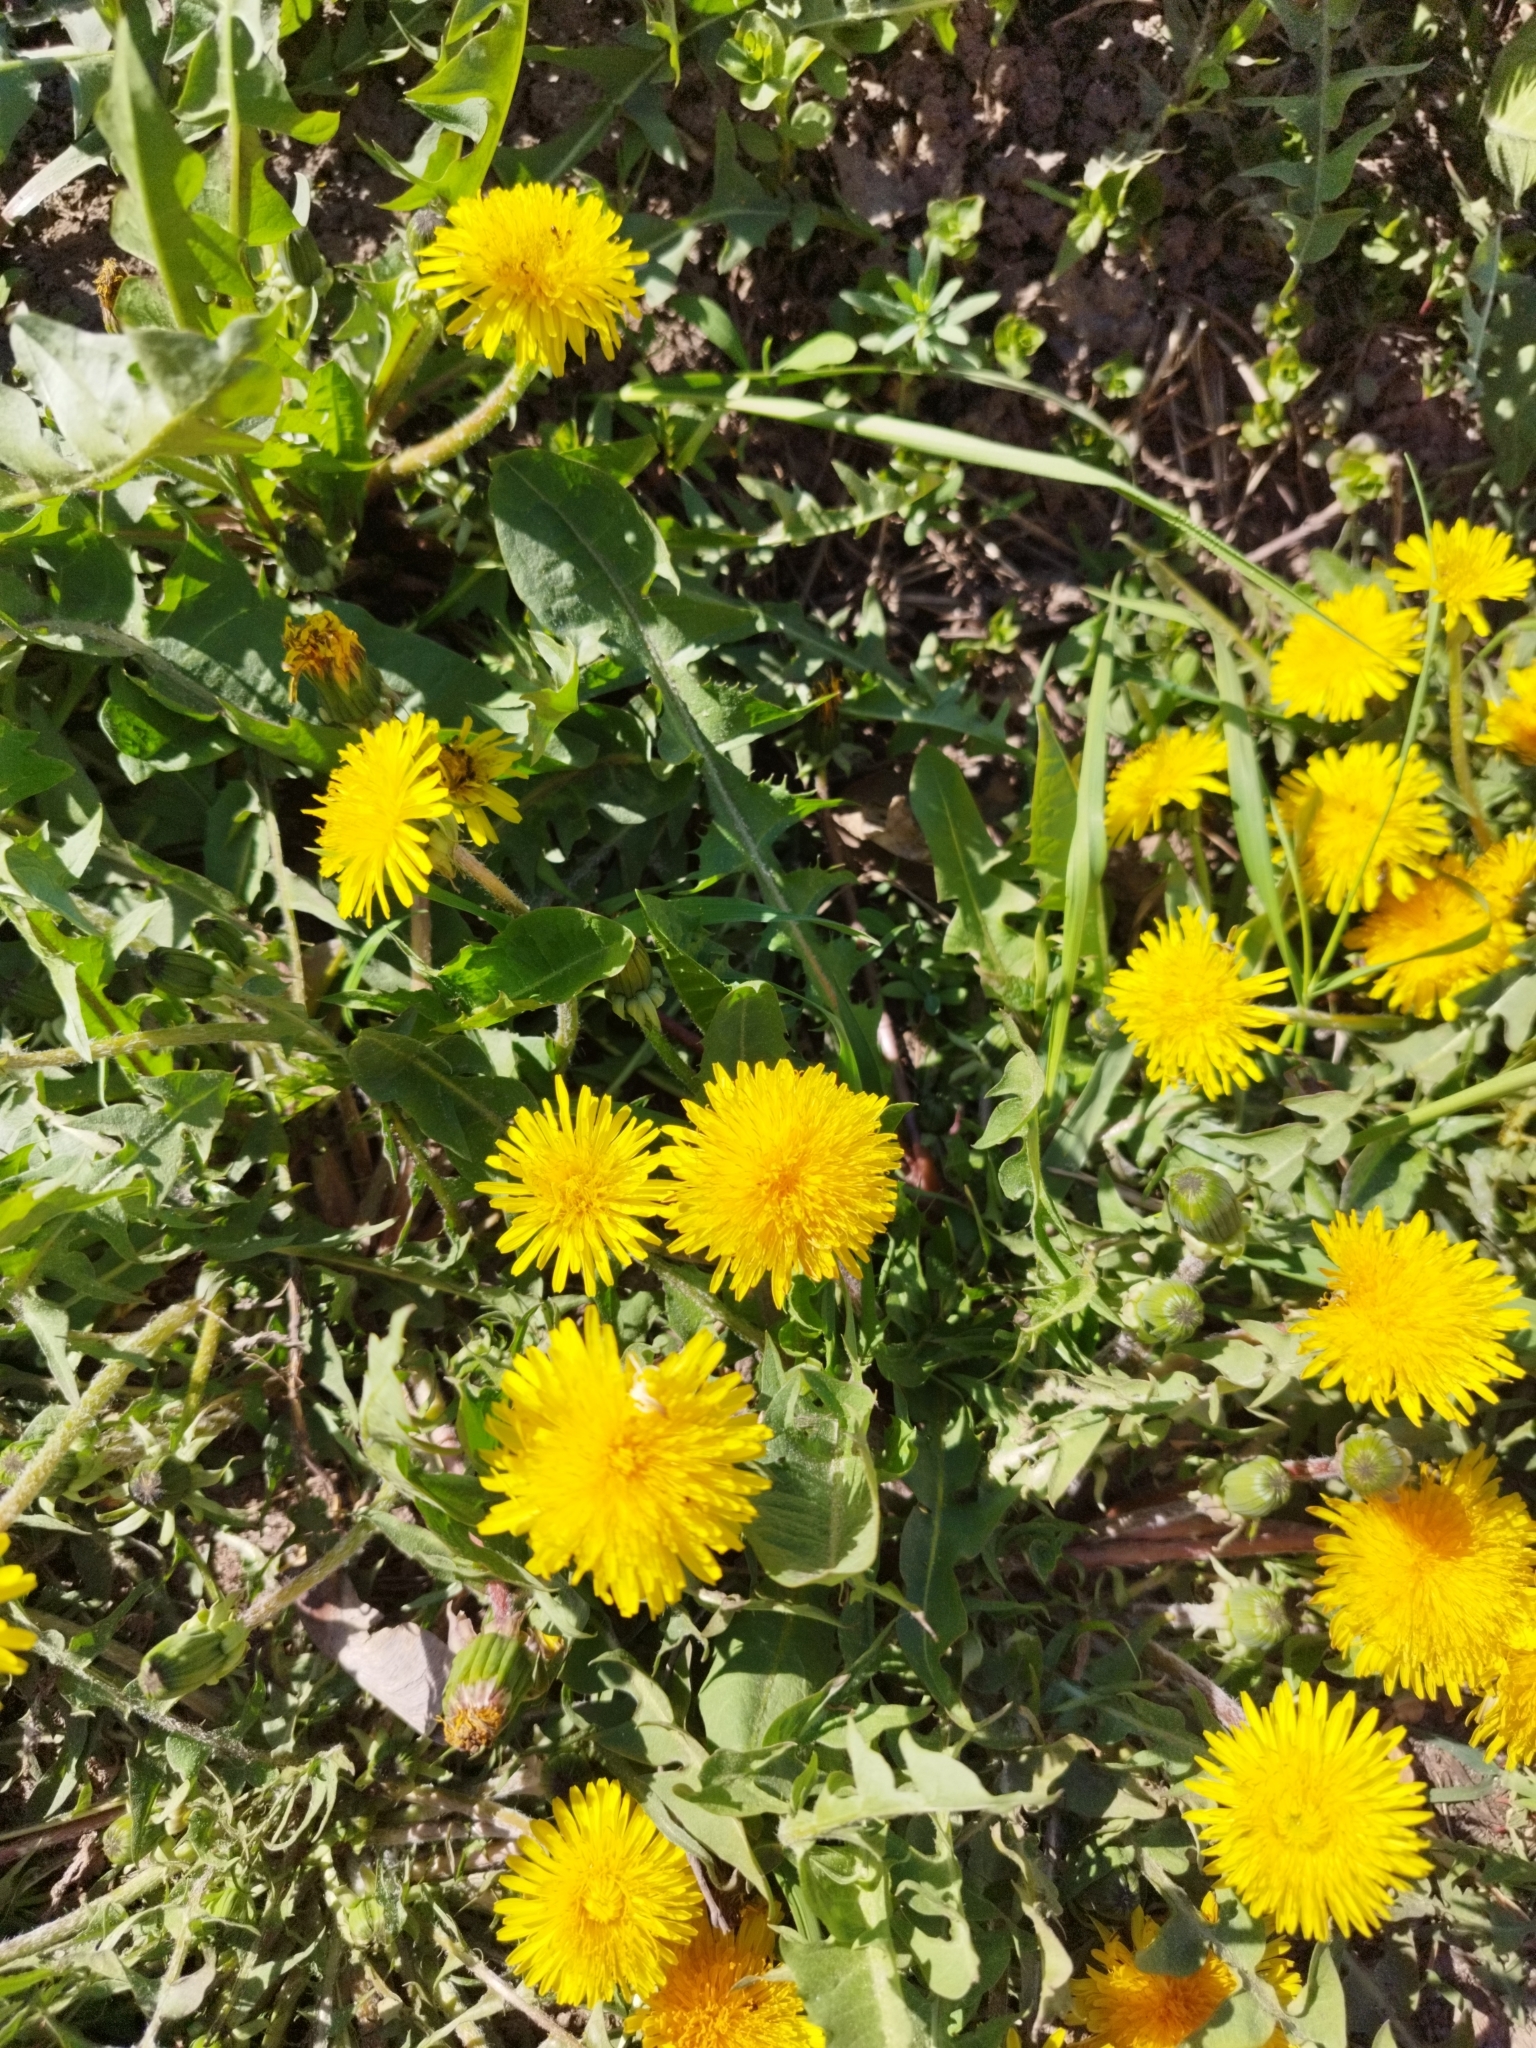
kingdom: Plantae
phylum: Tracheophyta
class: Magnoliopsida
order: Asterales
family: Asteraceae
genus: Taraxacum
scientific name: Taraxacum officinale
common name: Common dandelion
